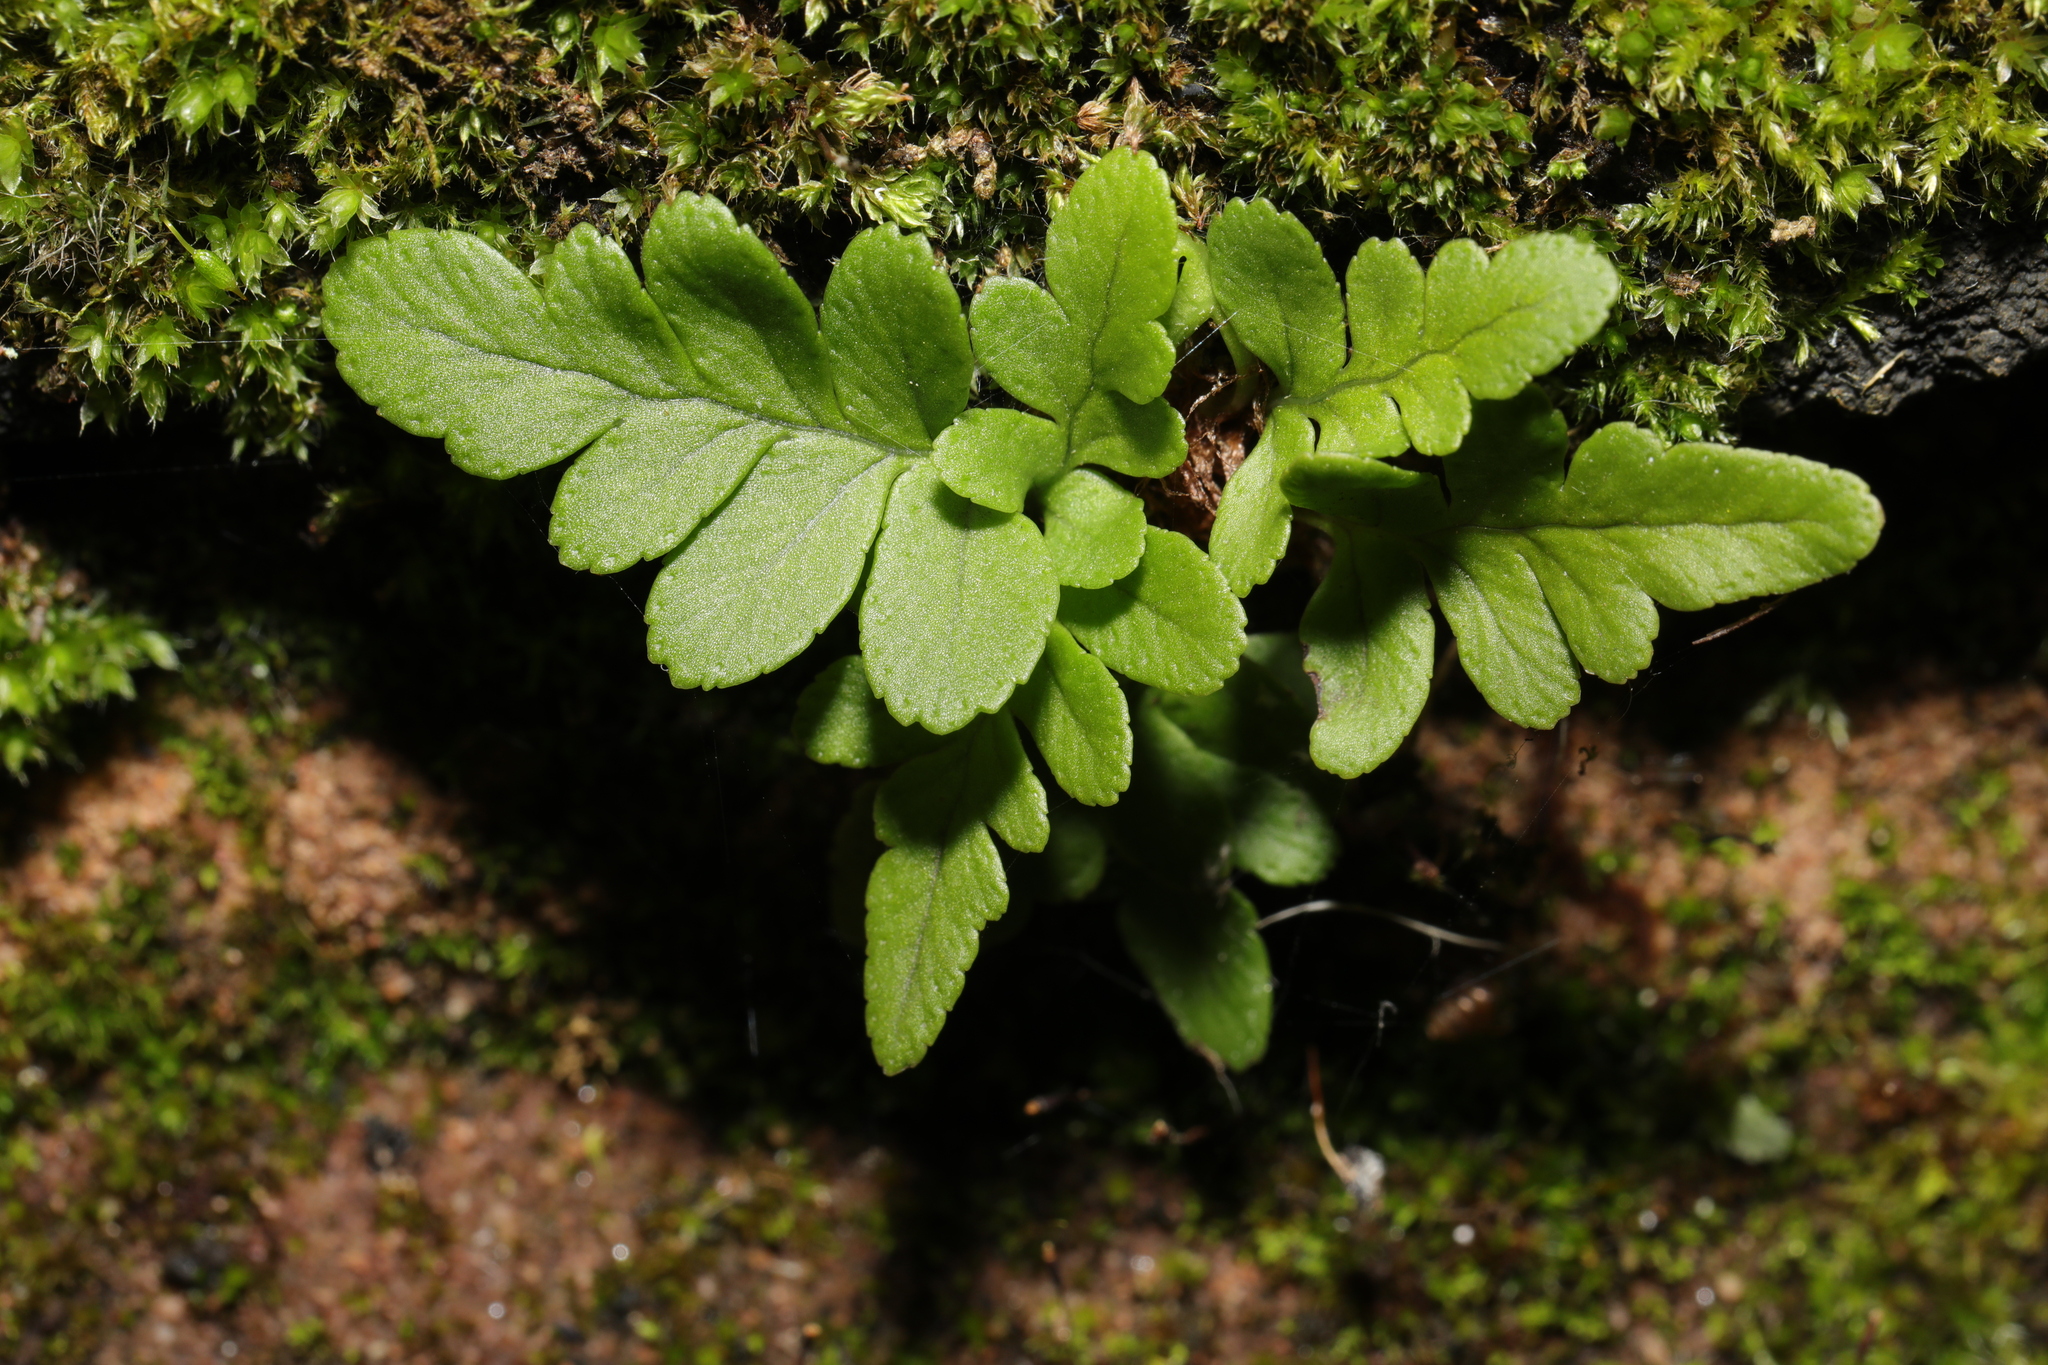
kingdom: Plantae
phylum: Tracheophyta
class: Polypodiopsida
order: Polypodiales
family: Polypodiaceae
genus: Polypodium
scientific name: Polypodium vulgare
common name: Common polypody
